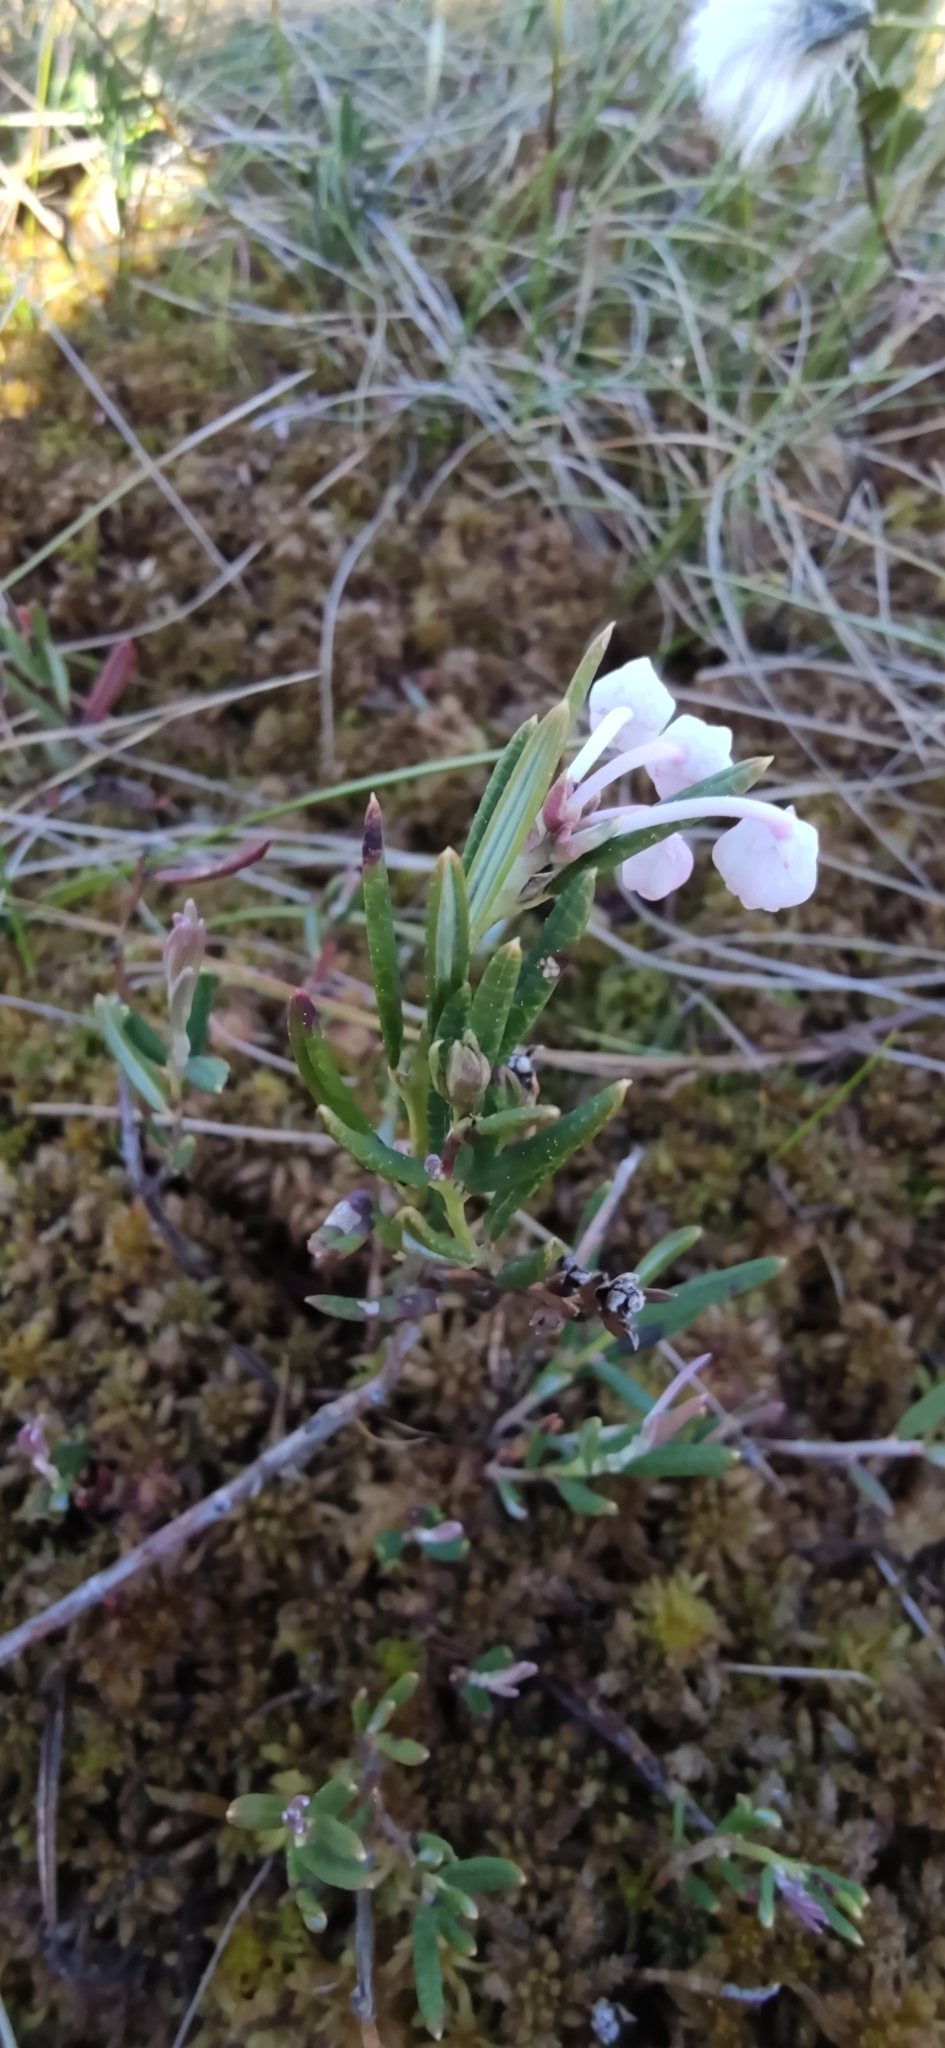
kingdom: Plantae
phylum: Tracheophyta
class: Magnoliopsida
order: Ericales
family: Ericaceae
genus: Andromeda
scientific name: Andromeda polifolia
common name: Bog-rosemary
